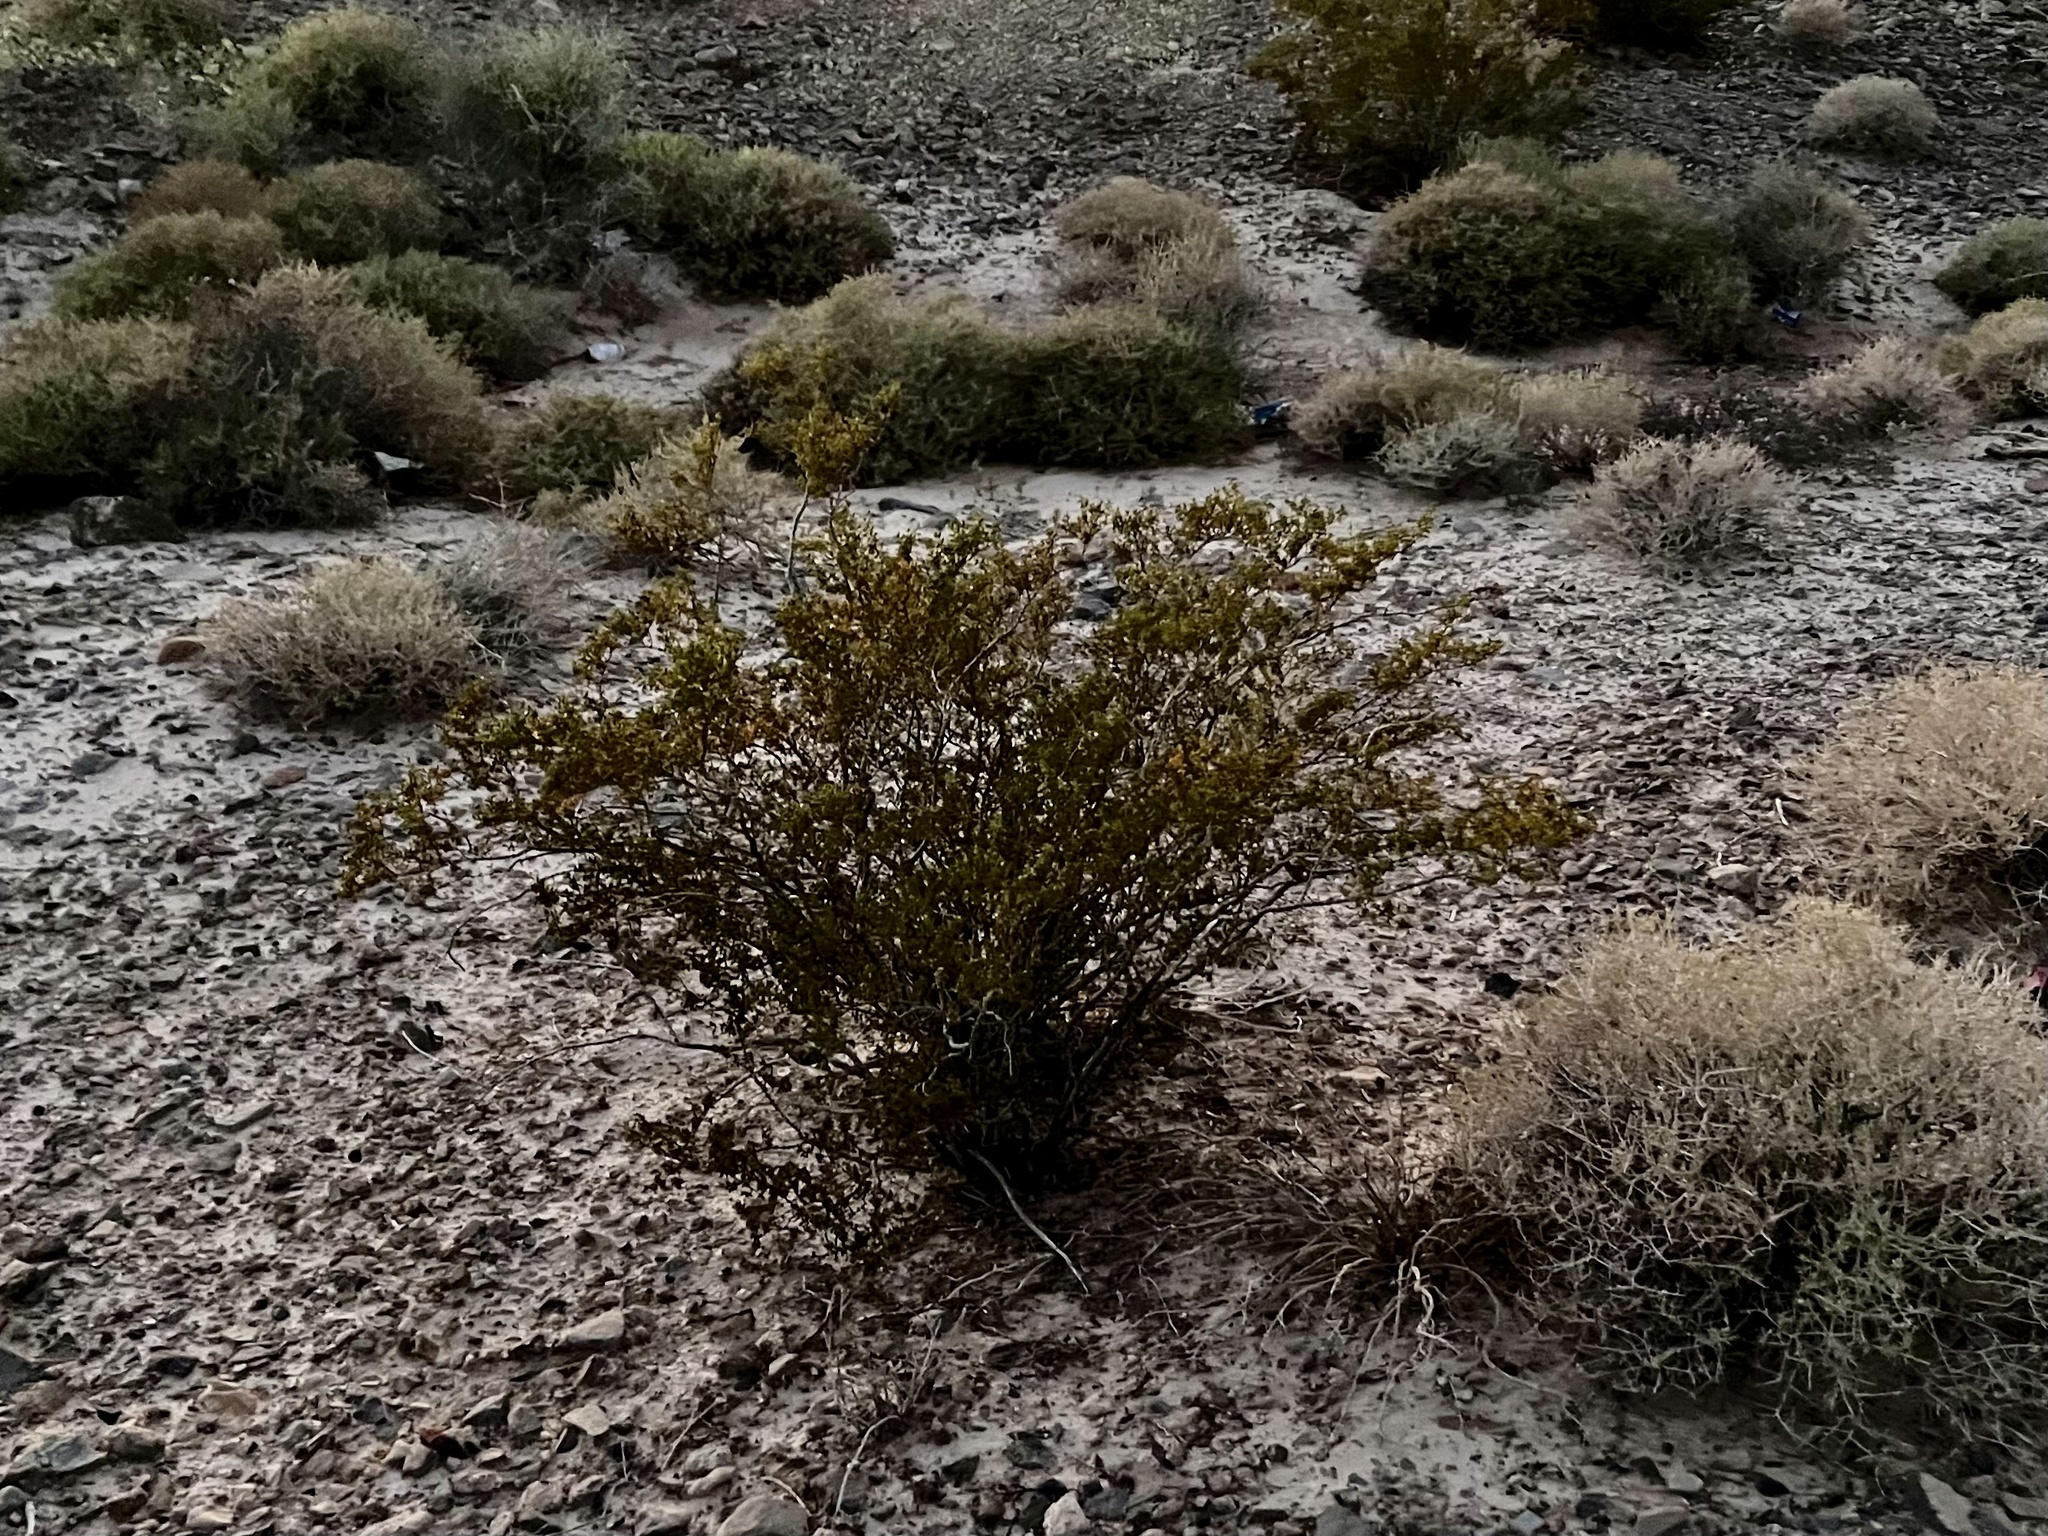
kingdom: Plantae
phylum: Tracheophyta
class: Magnoliopsida
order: Zygophyllales
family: Zygophyllaceae
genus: Larrea
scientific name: Larrea tridentata
